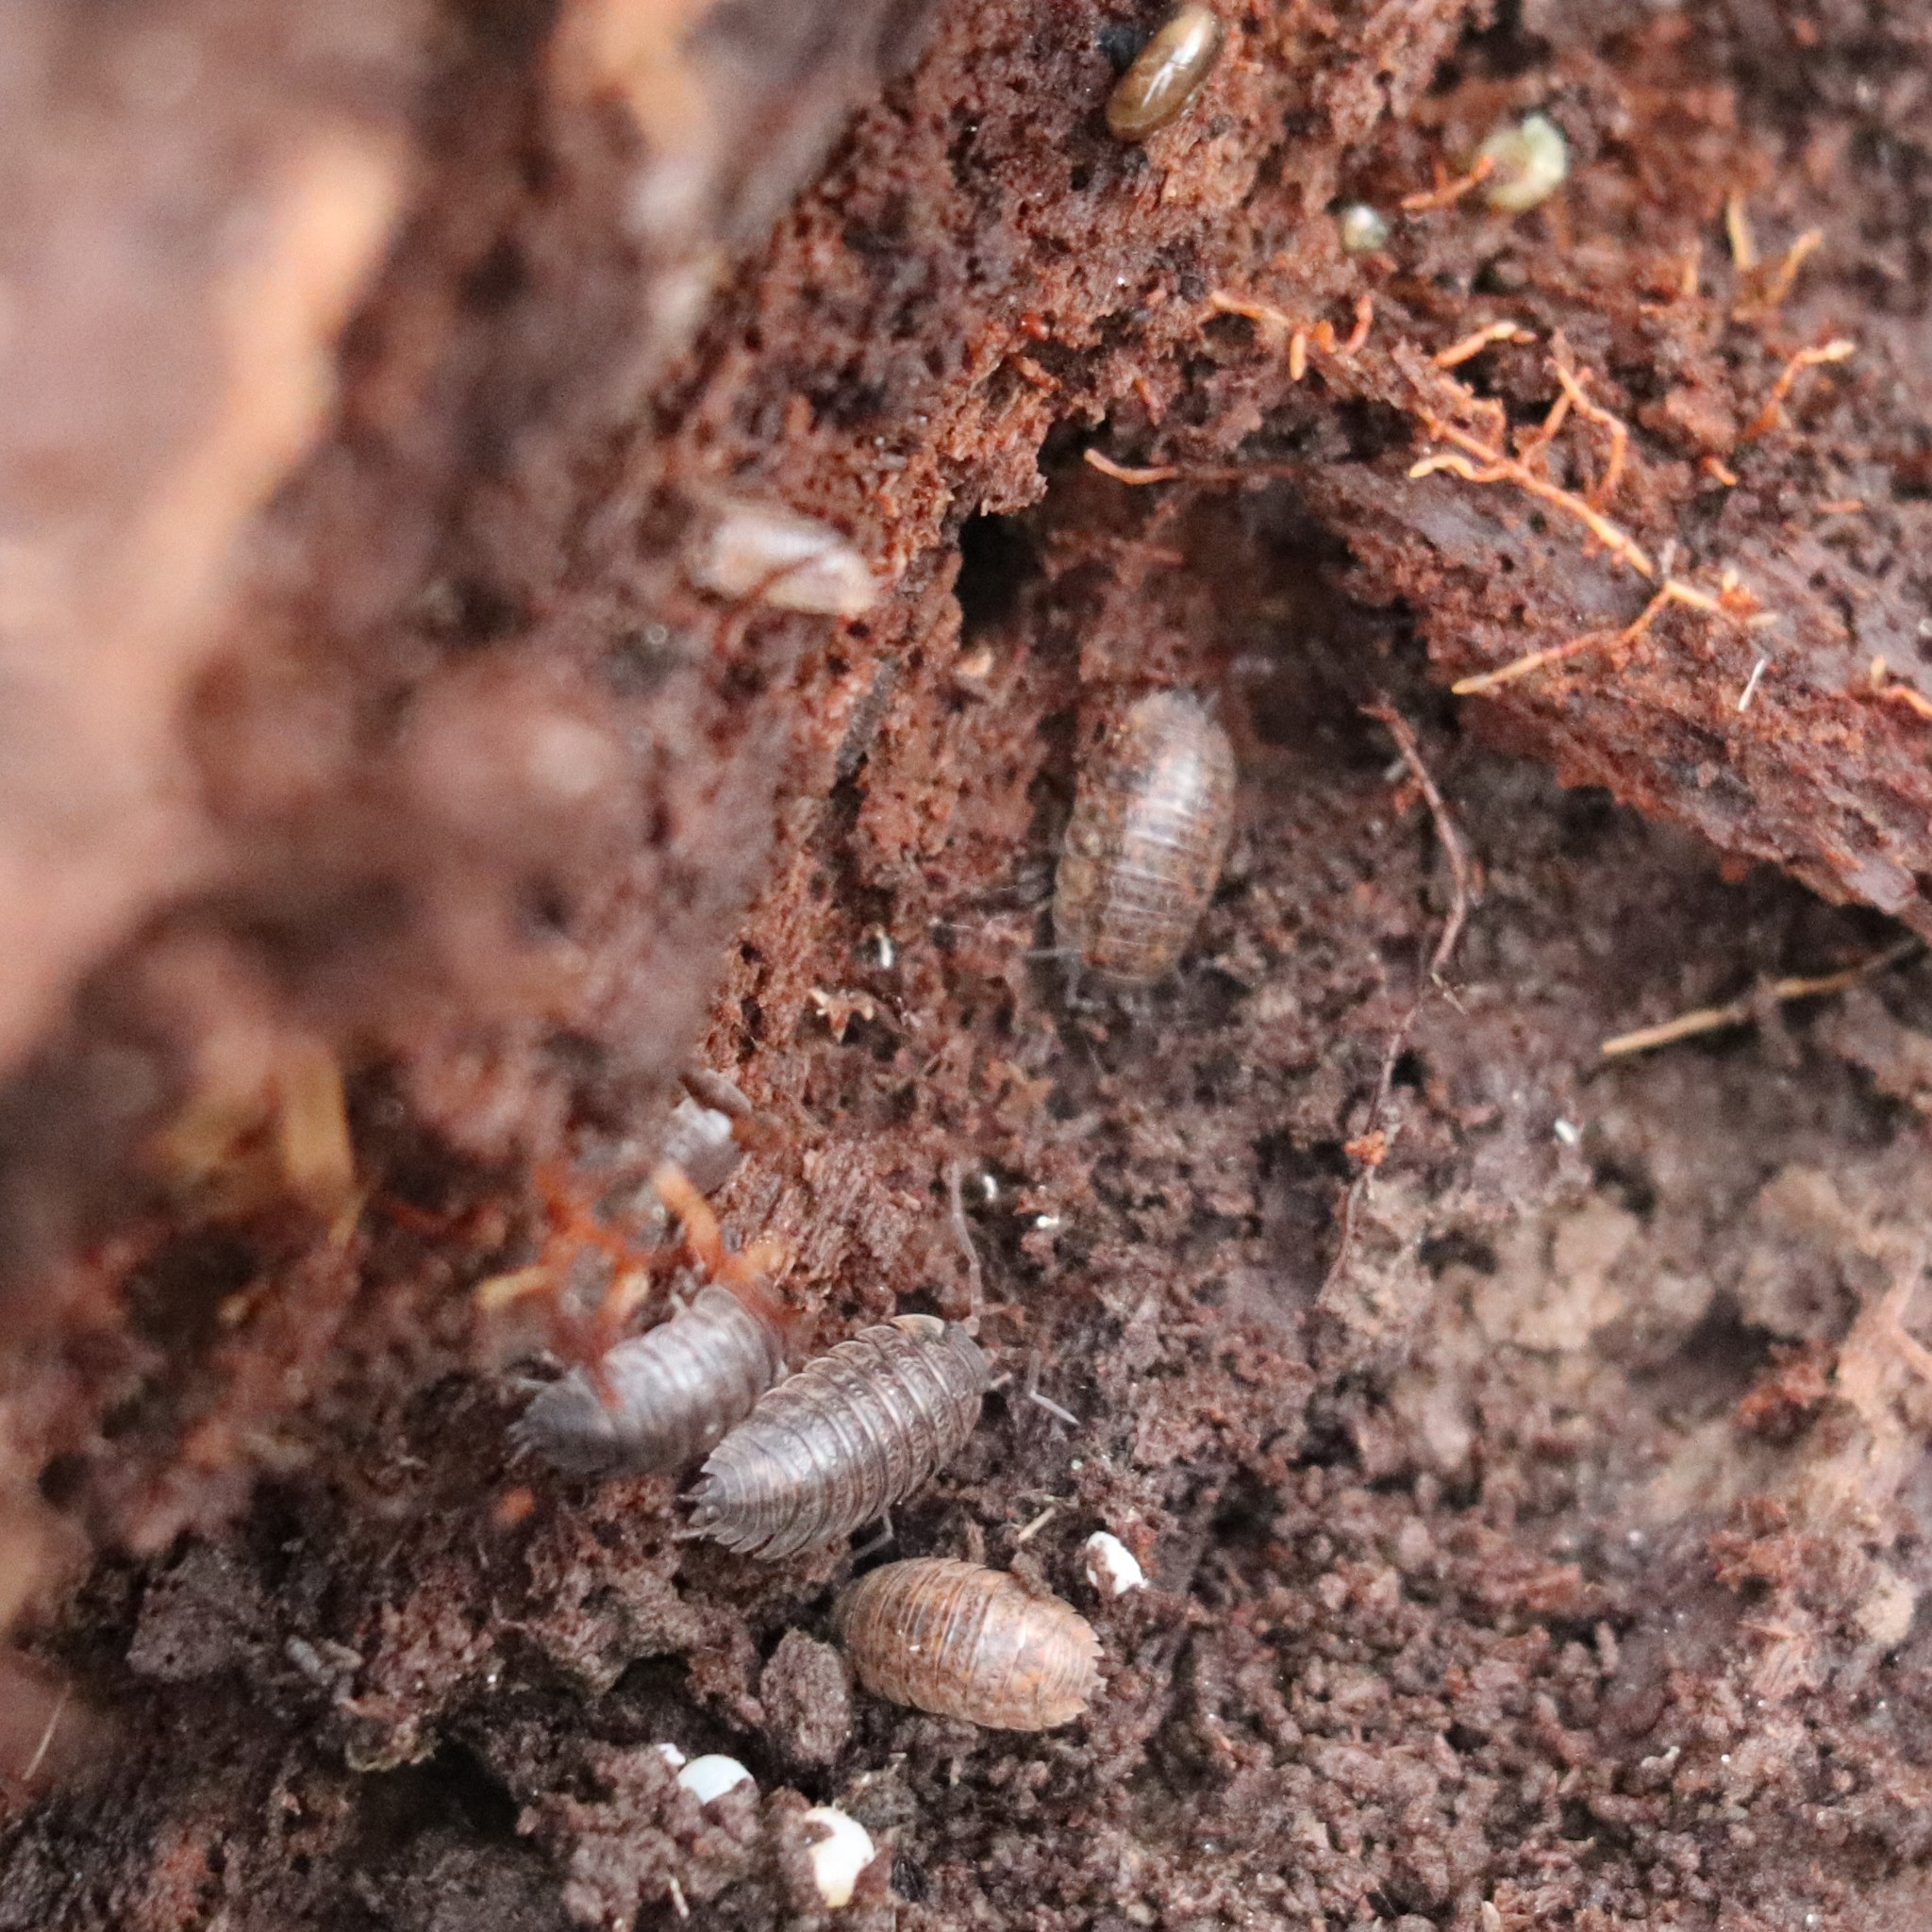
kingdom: Animalia
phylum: Arthropoda
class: Malacostraca
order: Isopoda
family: Trachelipodidae
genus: Trachelipus
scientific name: Trachelipus rathkii
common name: Isopod
